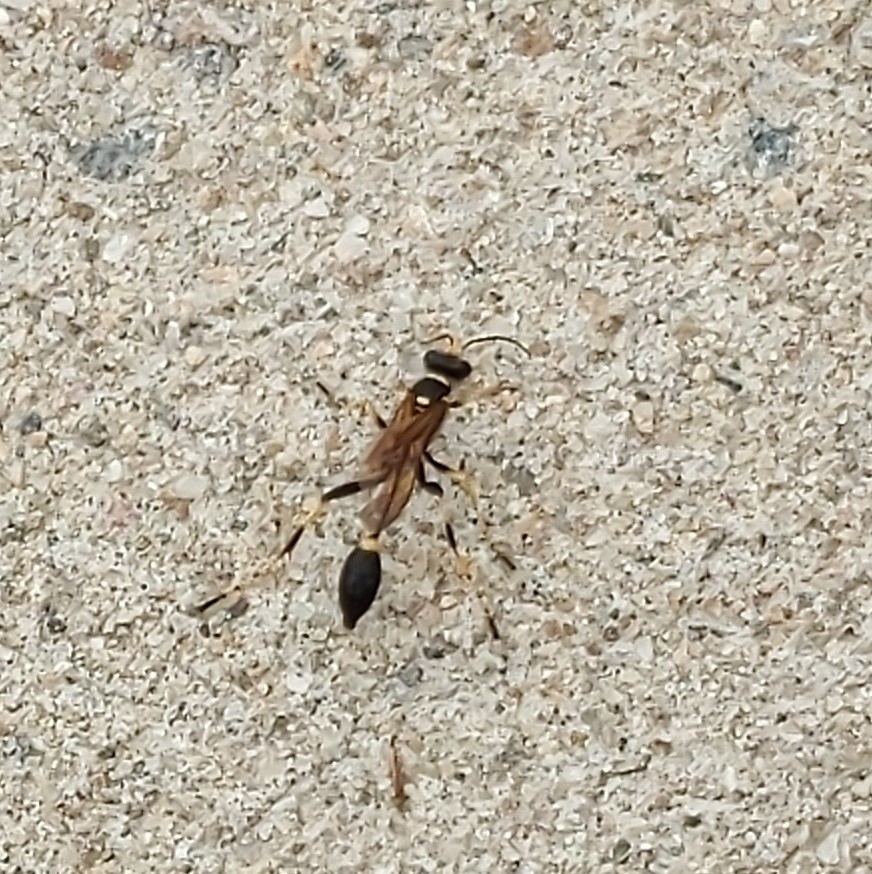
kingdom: Animalia
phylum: Arthropoda
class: Insecta
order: Hymenoptera
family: Sphecidae
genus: Sceliphron
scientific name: Sceliphron caementarium
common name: Mud dauber
